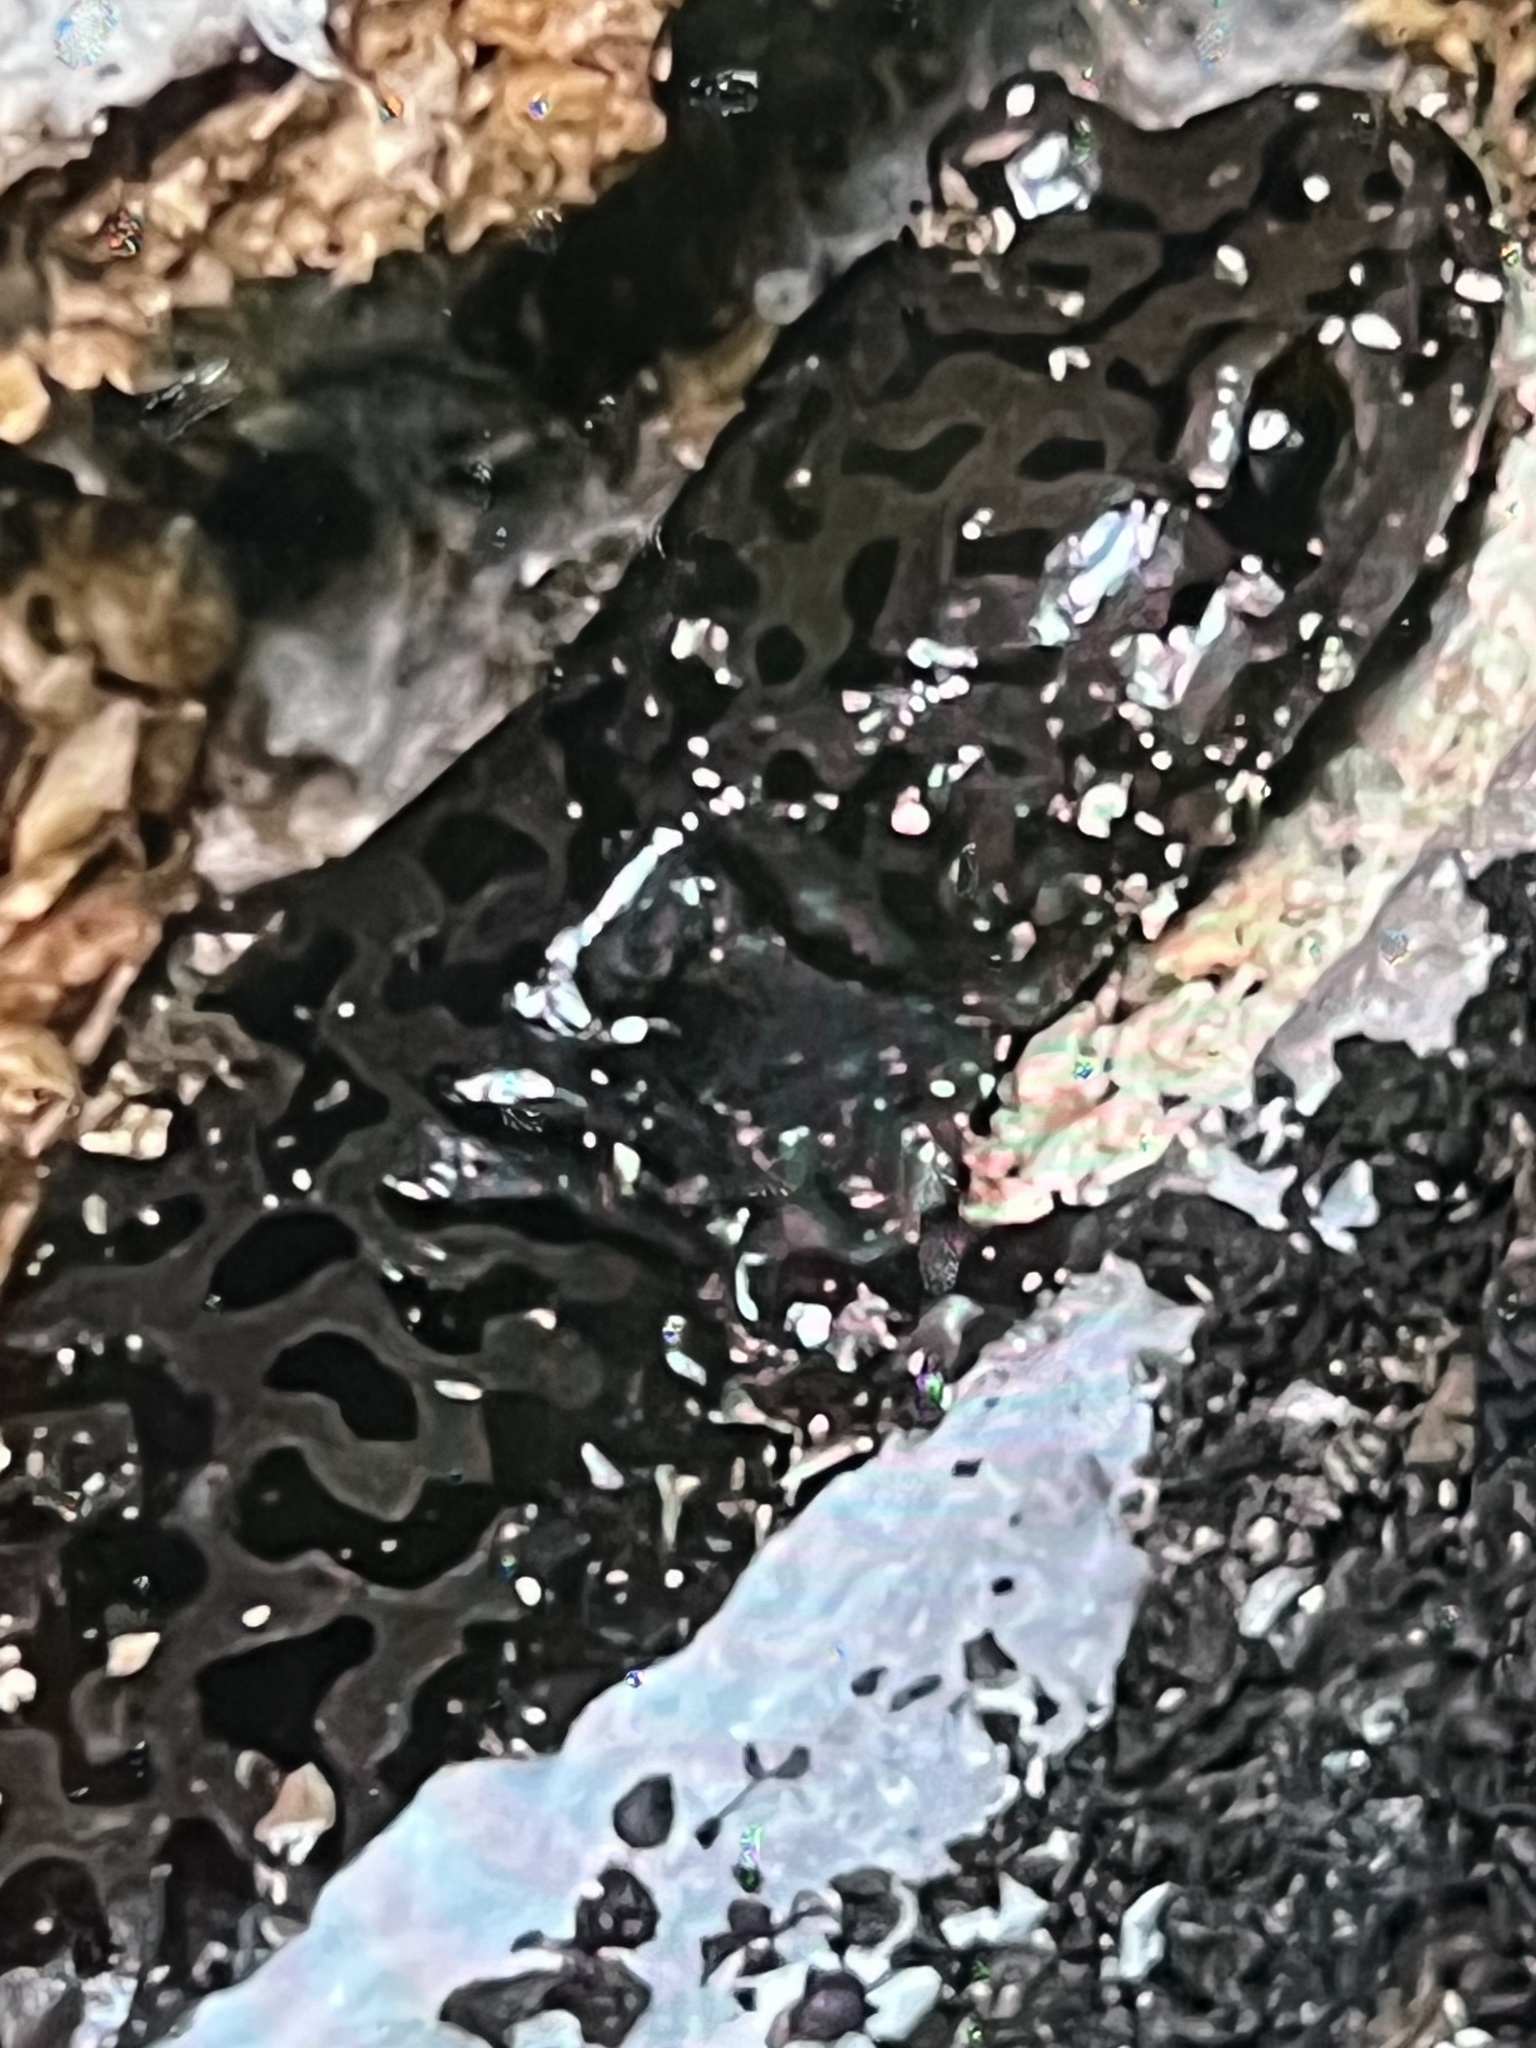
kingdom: Animalia
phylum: Chordata
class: Amphibia
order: Caudata
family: Ambystomatidae
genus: Dicamptodon
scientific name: Dicamptodon tenebrosus
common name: Coastal giant salamander
